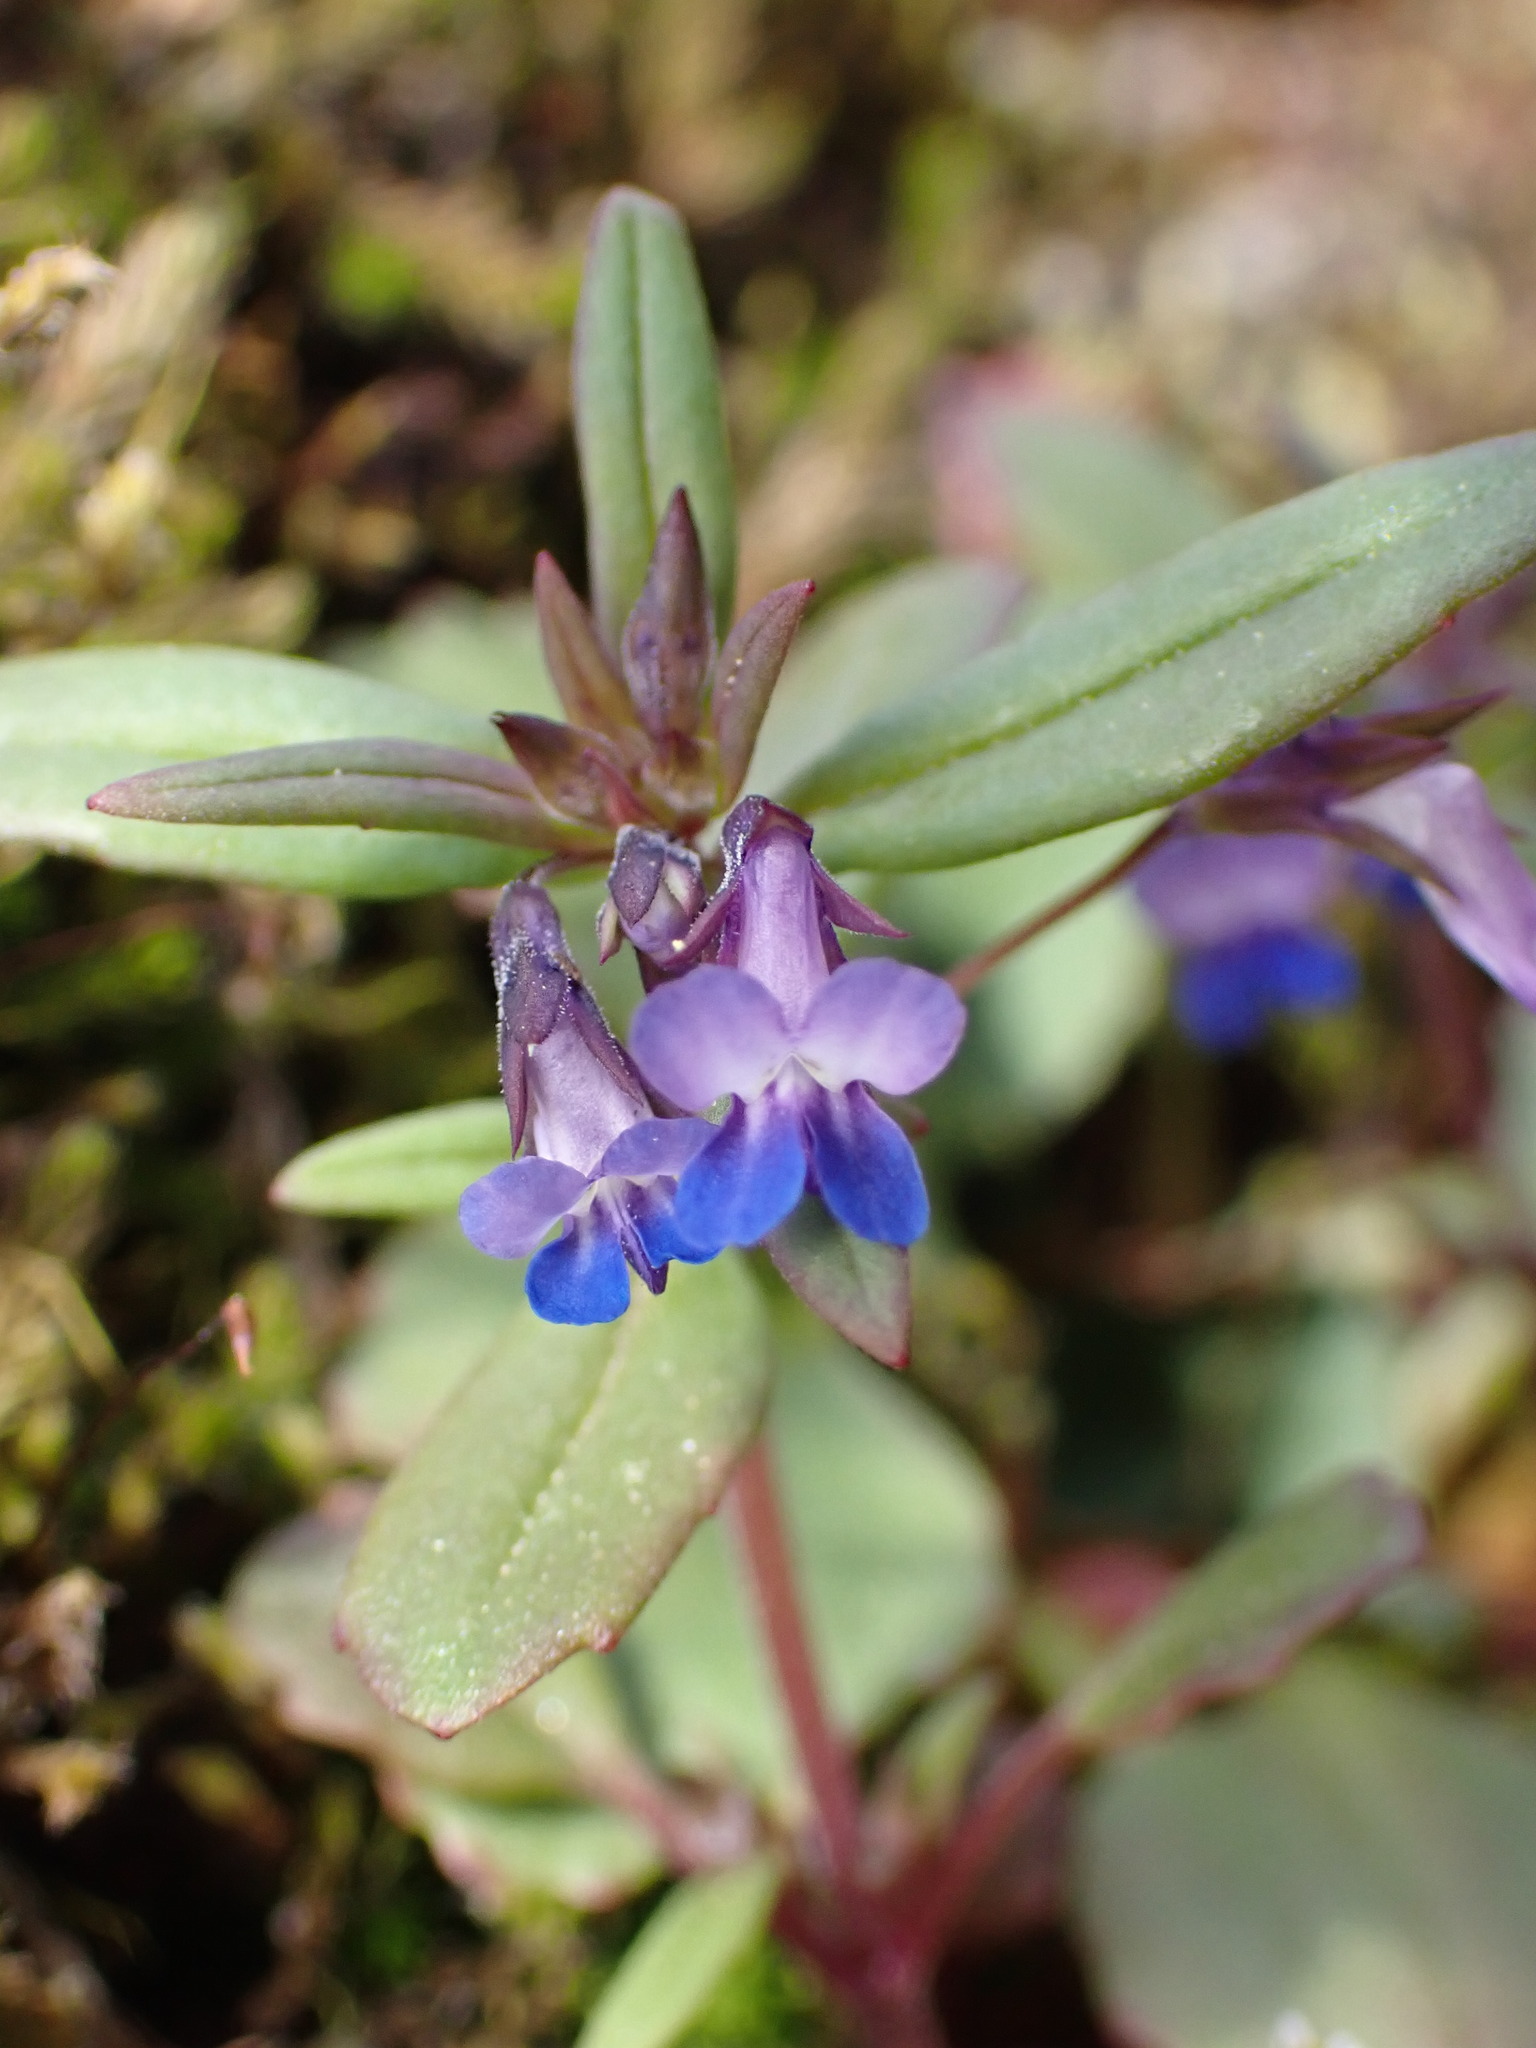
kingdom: Plantae
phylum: Tracheophyta
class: Magnoliopsida
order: Lamiales
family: Plantaginaceae
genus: Collinsia
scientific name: Collinsia parviflora
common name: Blue-lips
